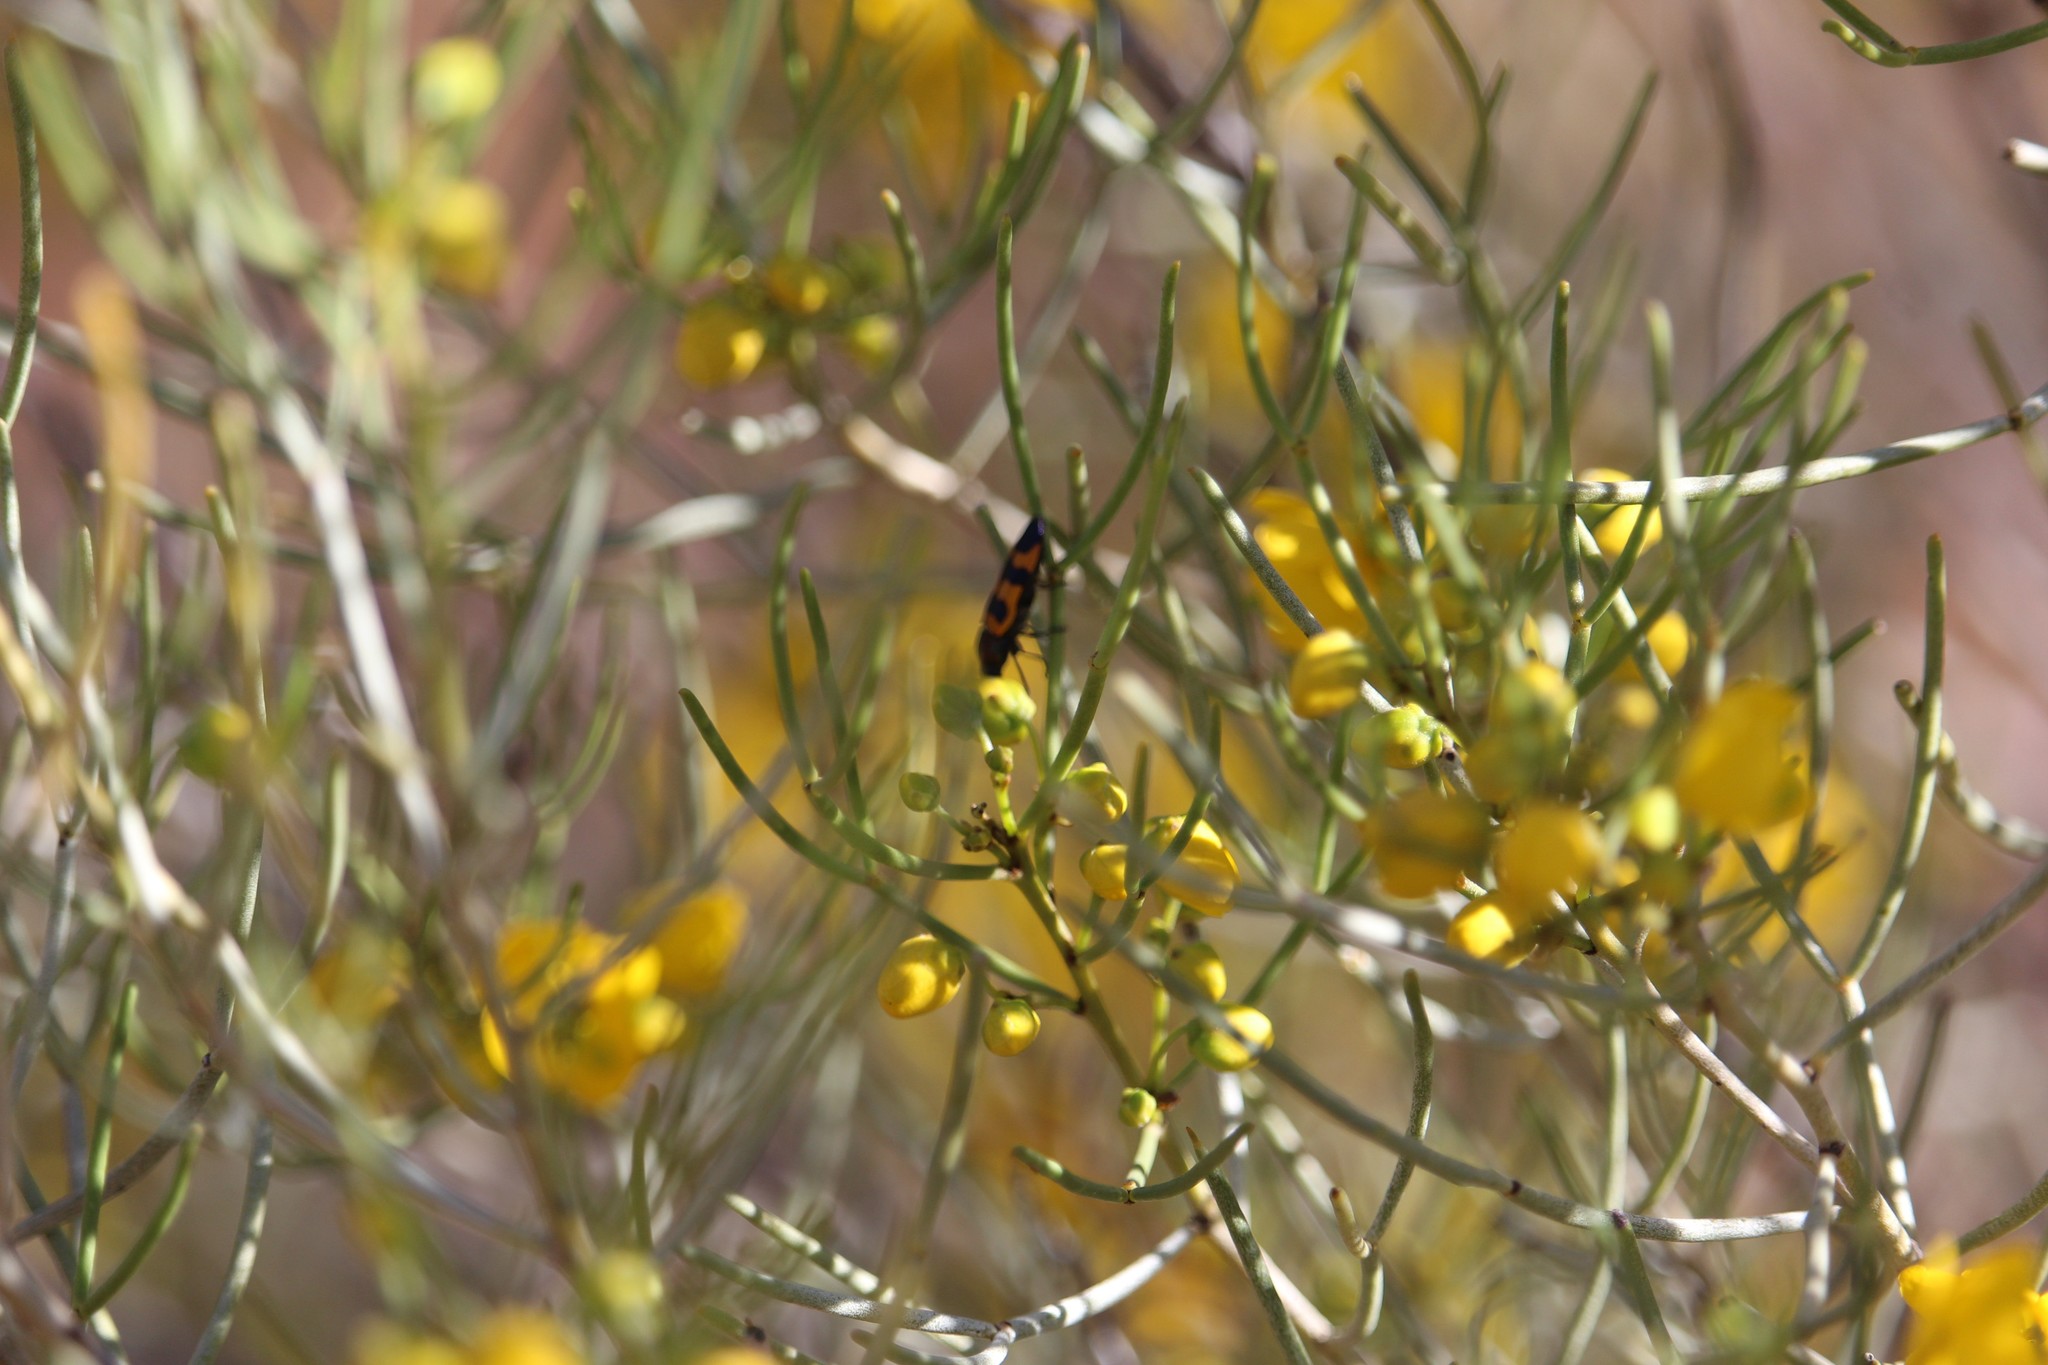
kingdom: Plantae
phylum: Tracheophyta
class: Magnoliopsida
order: Fabales
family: Fabaceae
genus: Senna
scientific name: Senna artemisioides
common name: Burnt-leaved acacia
